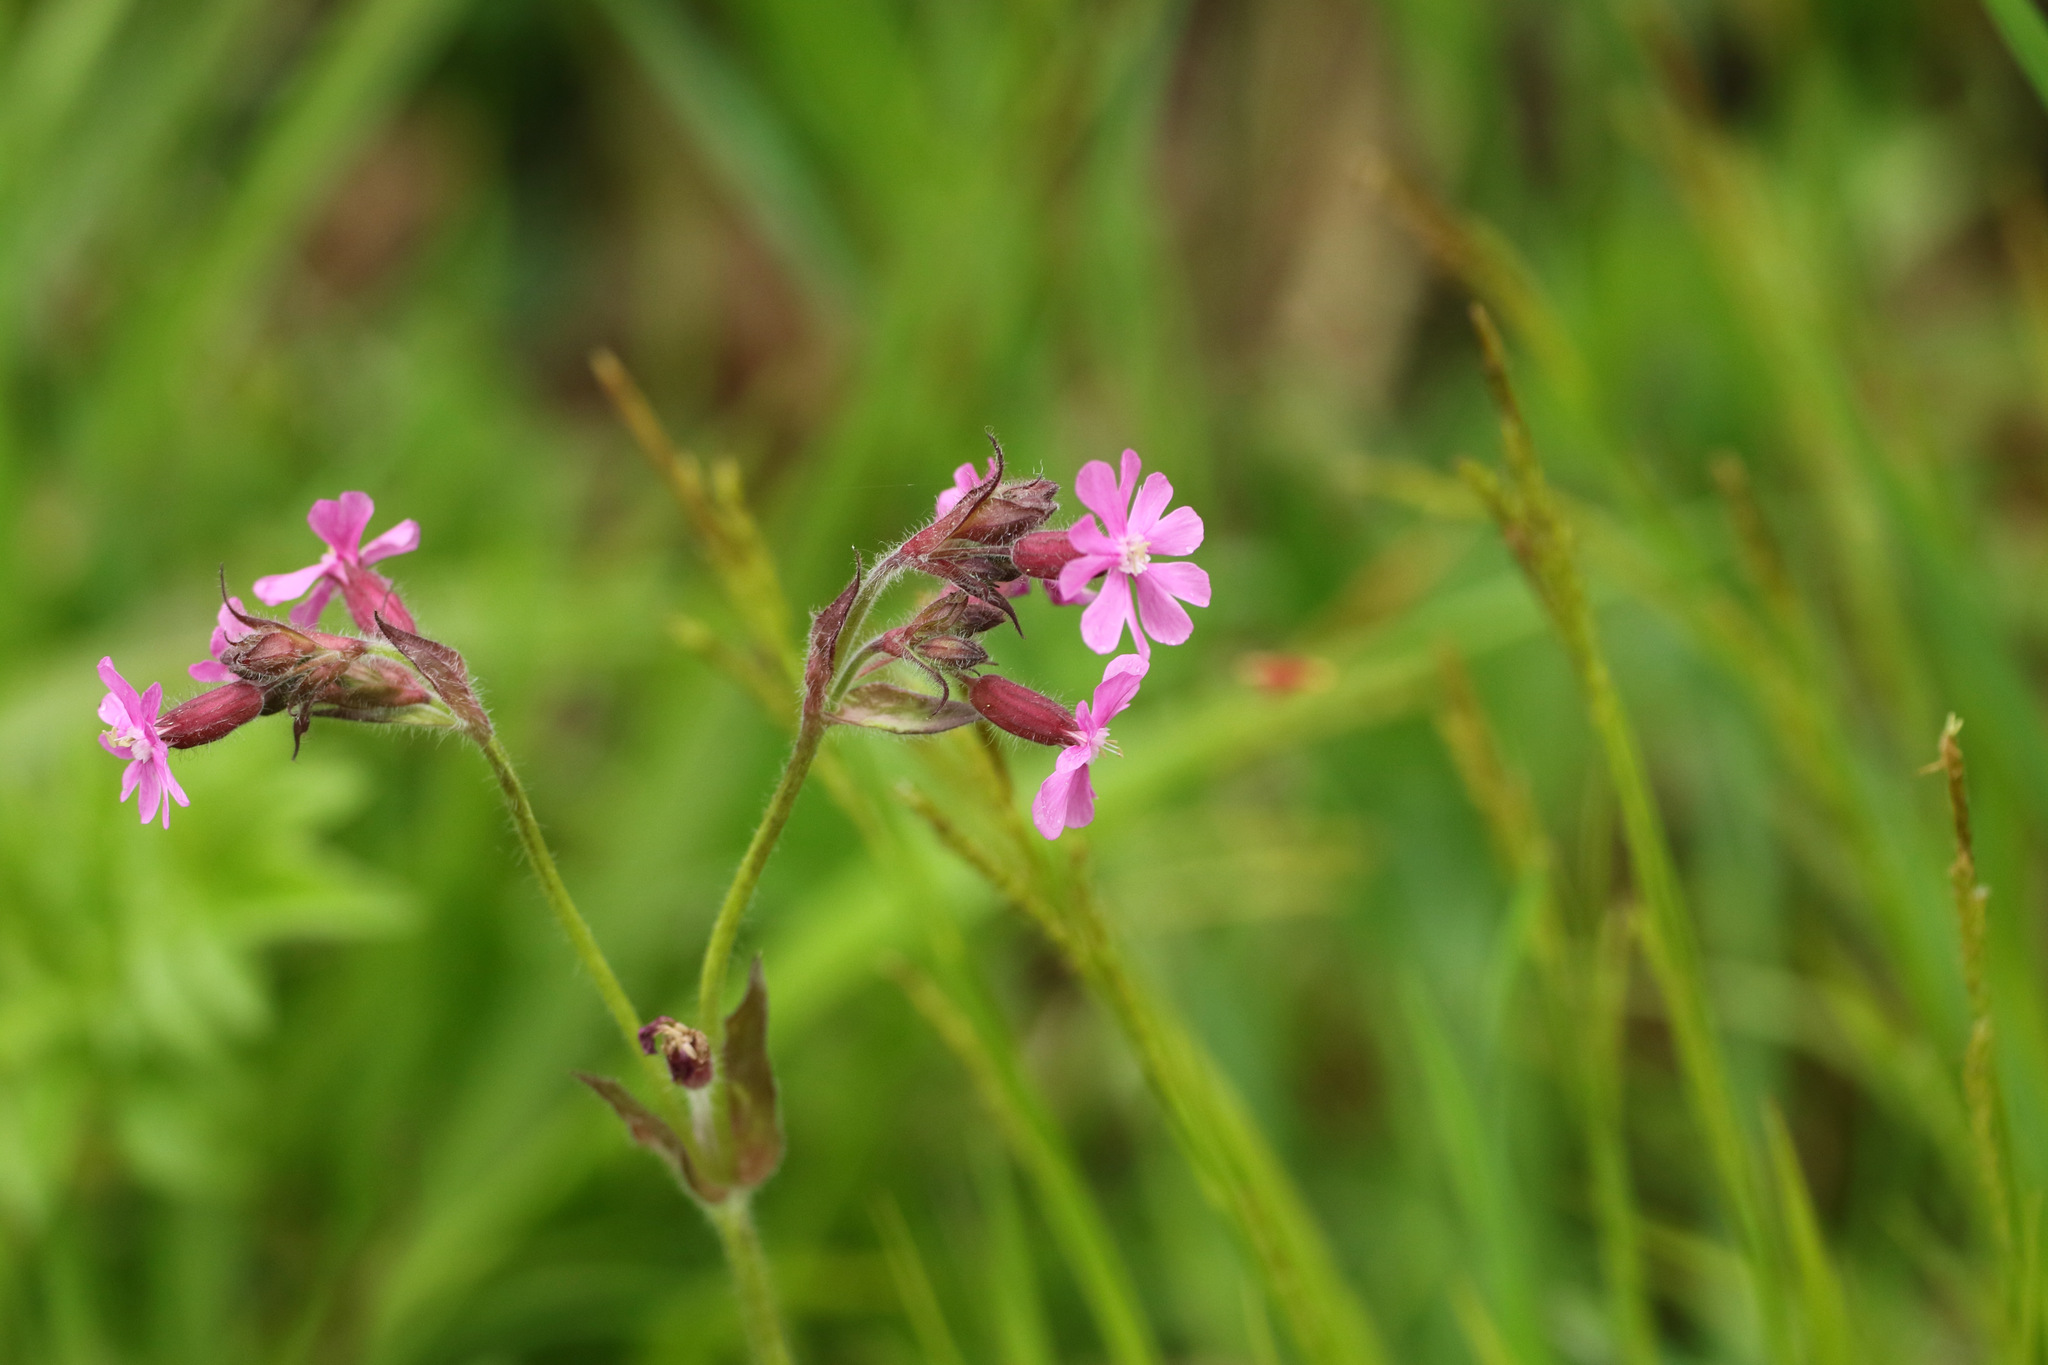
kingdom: Plantae
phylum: Tracheophyta
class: Magnoliopsida
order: Caryophyllales
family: Caryophyllaceae
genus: Silene
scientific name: Silene dioica
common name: Red campion
